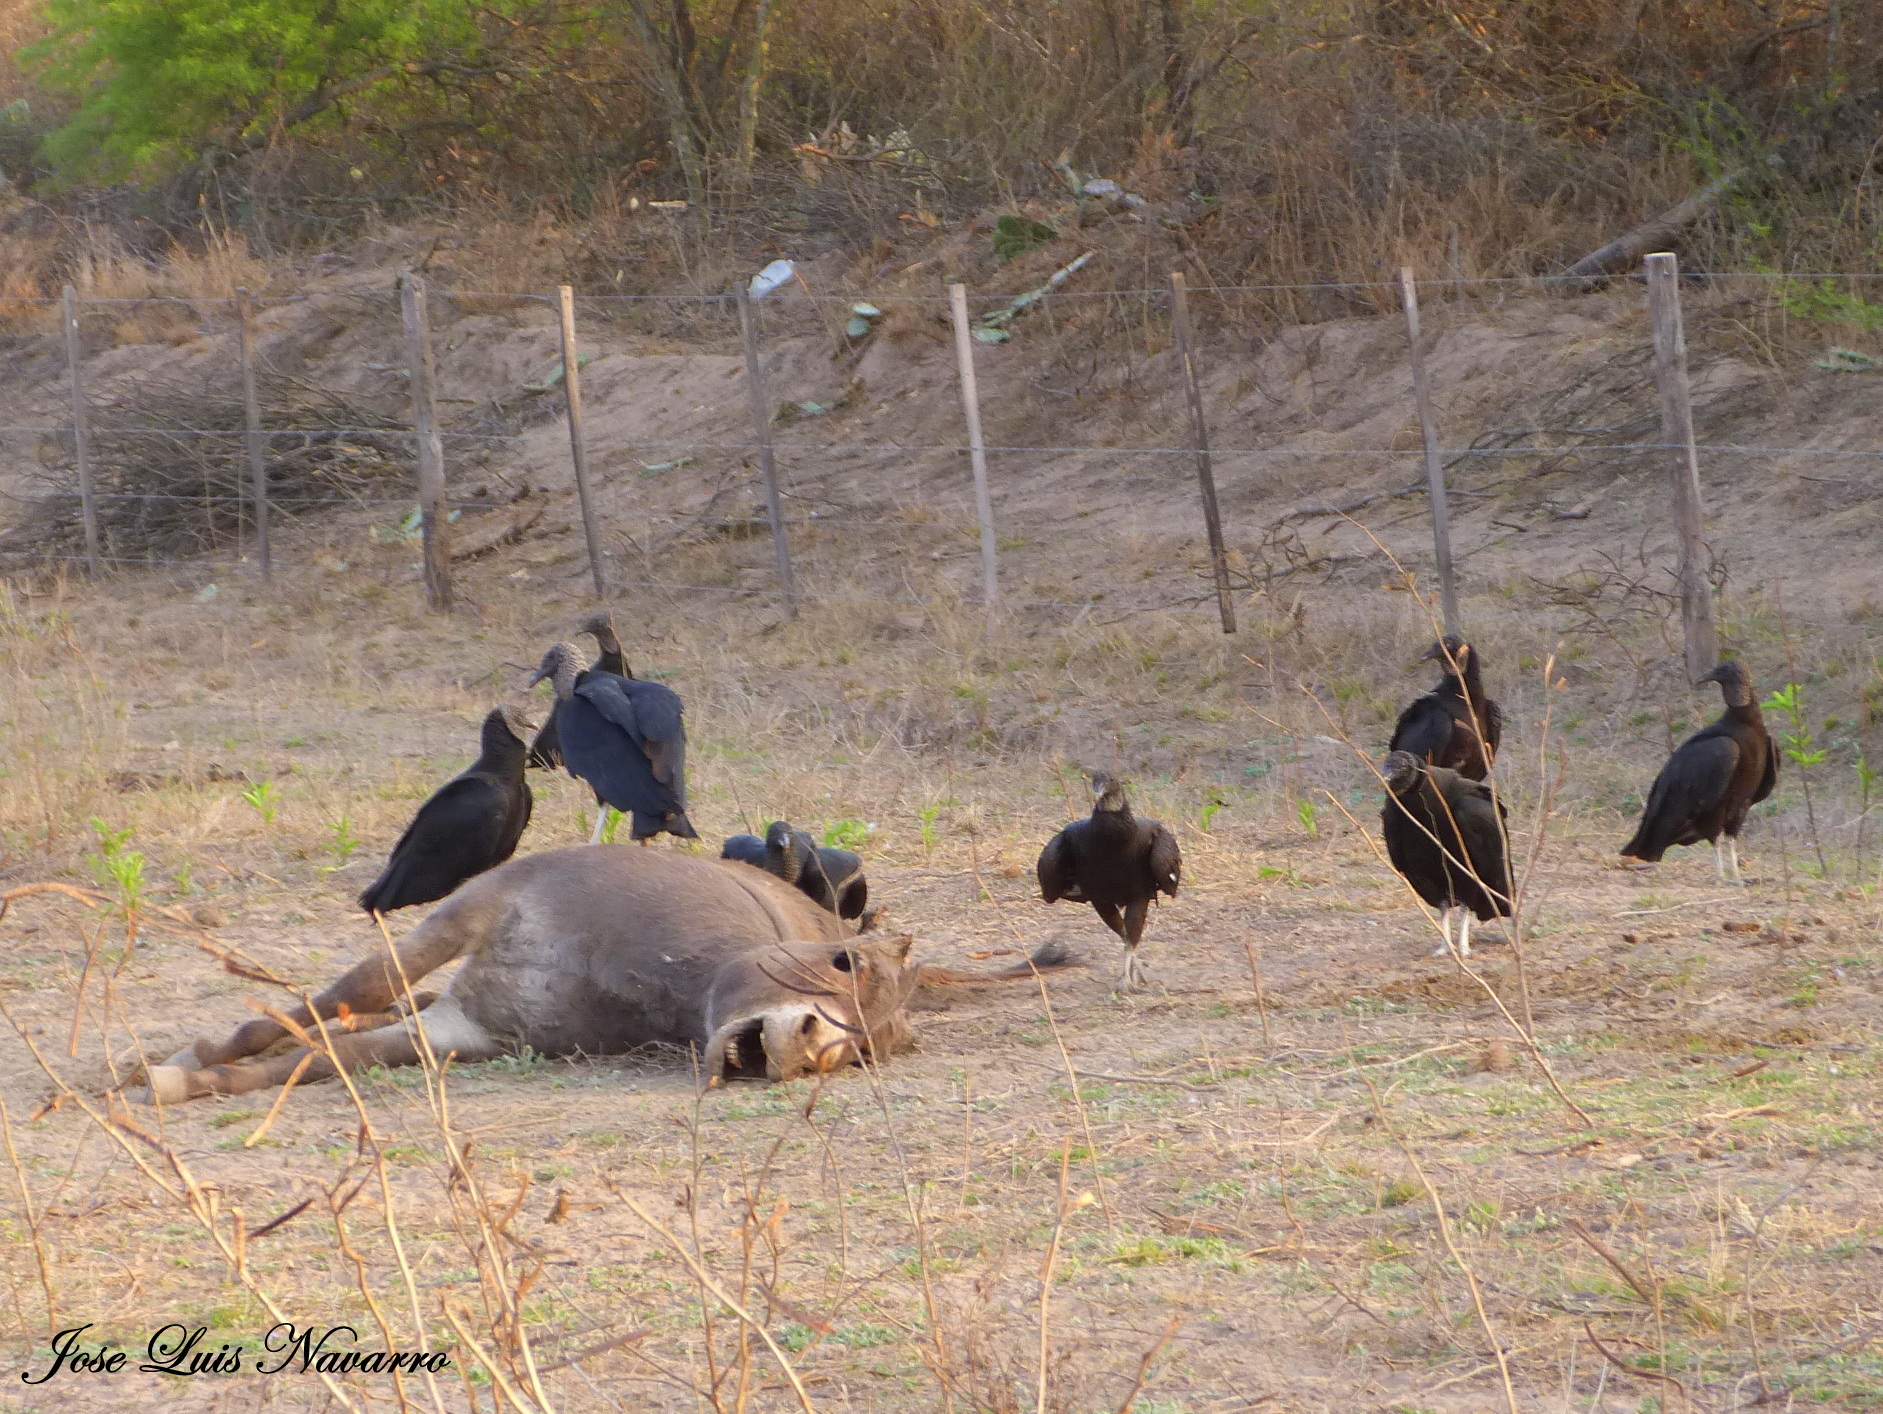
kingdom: Animalia
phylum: Chordata
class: Aves
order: Accipitriformes
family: Cathartidae
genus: Coragyps
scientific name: Coragyps atratus
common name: Black vulture
